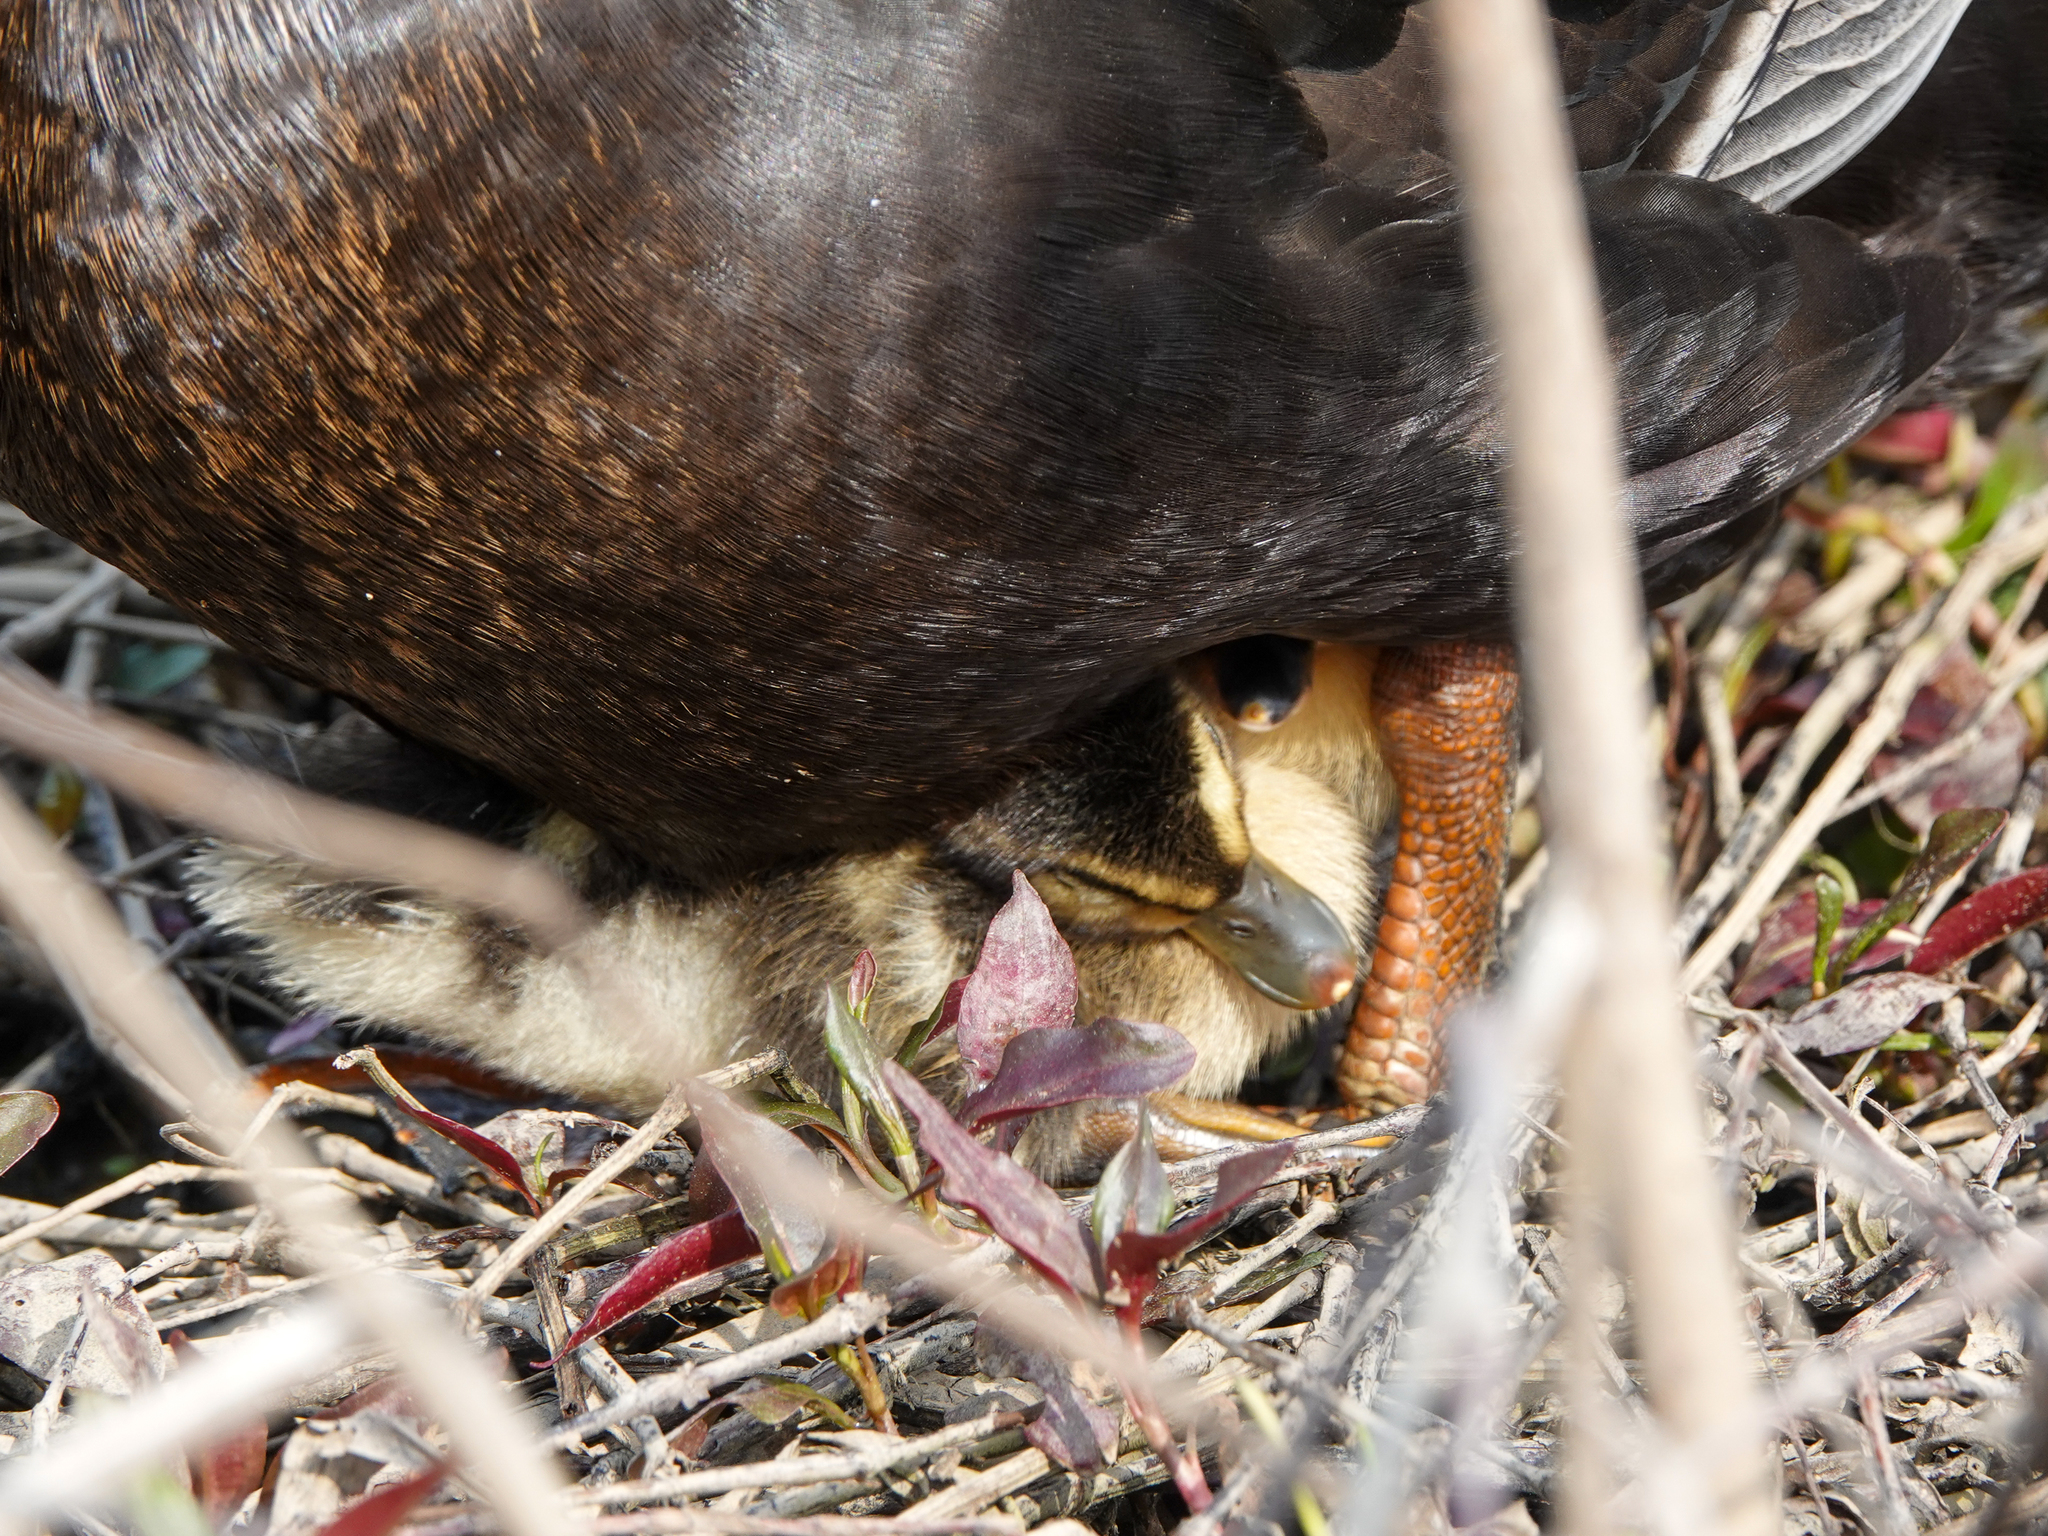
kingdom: Animalia
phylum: Chordata
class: Aves
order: Anseriformes
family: Anatidae
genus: Anas
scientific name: Anas platyrhynchos
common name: Mallard
